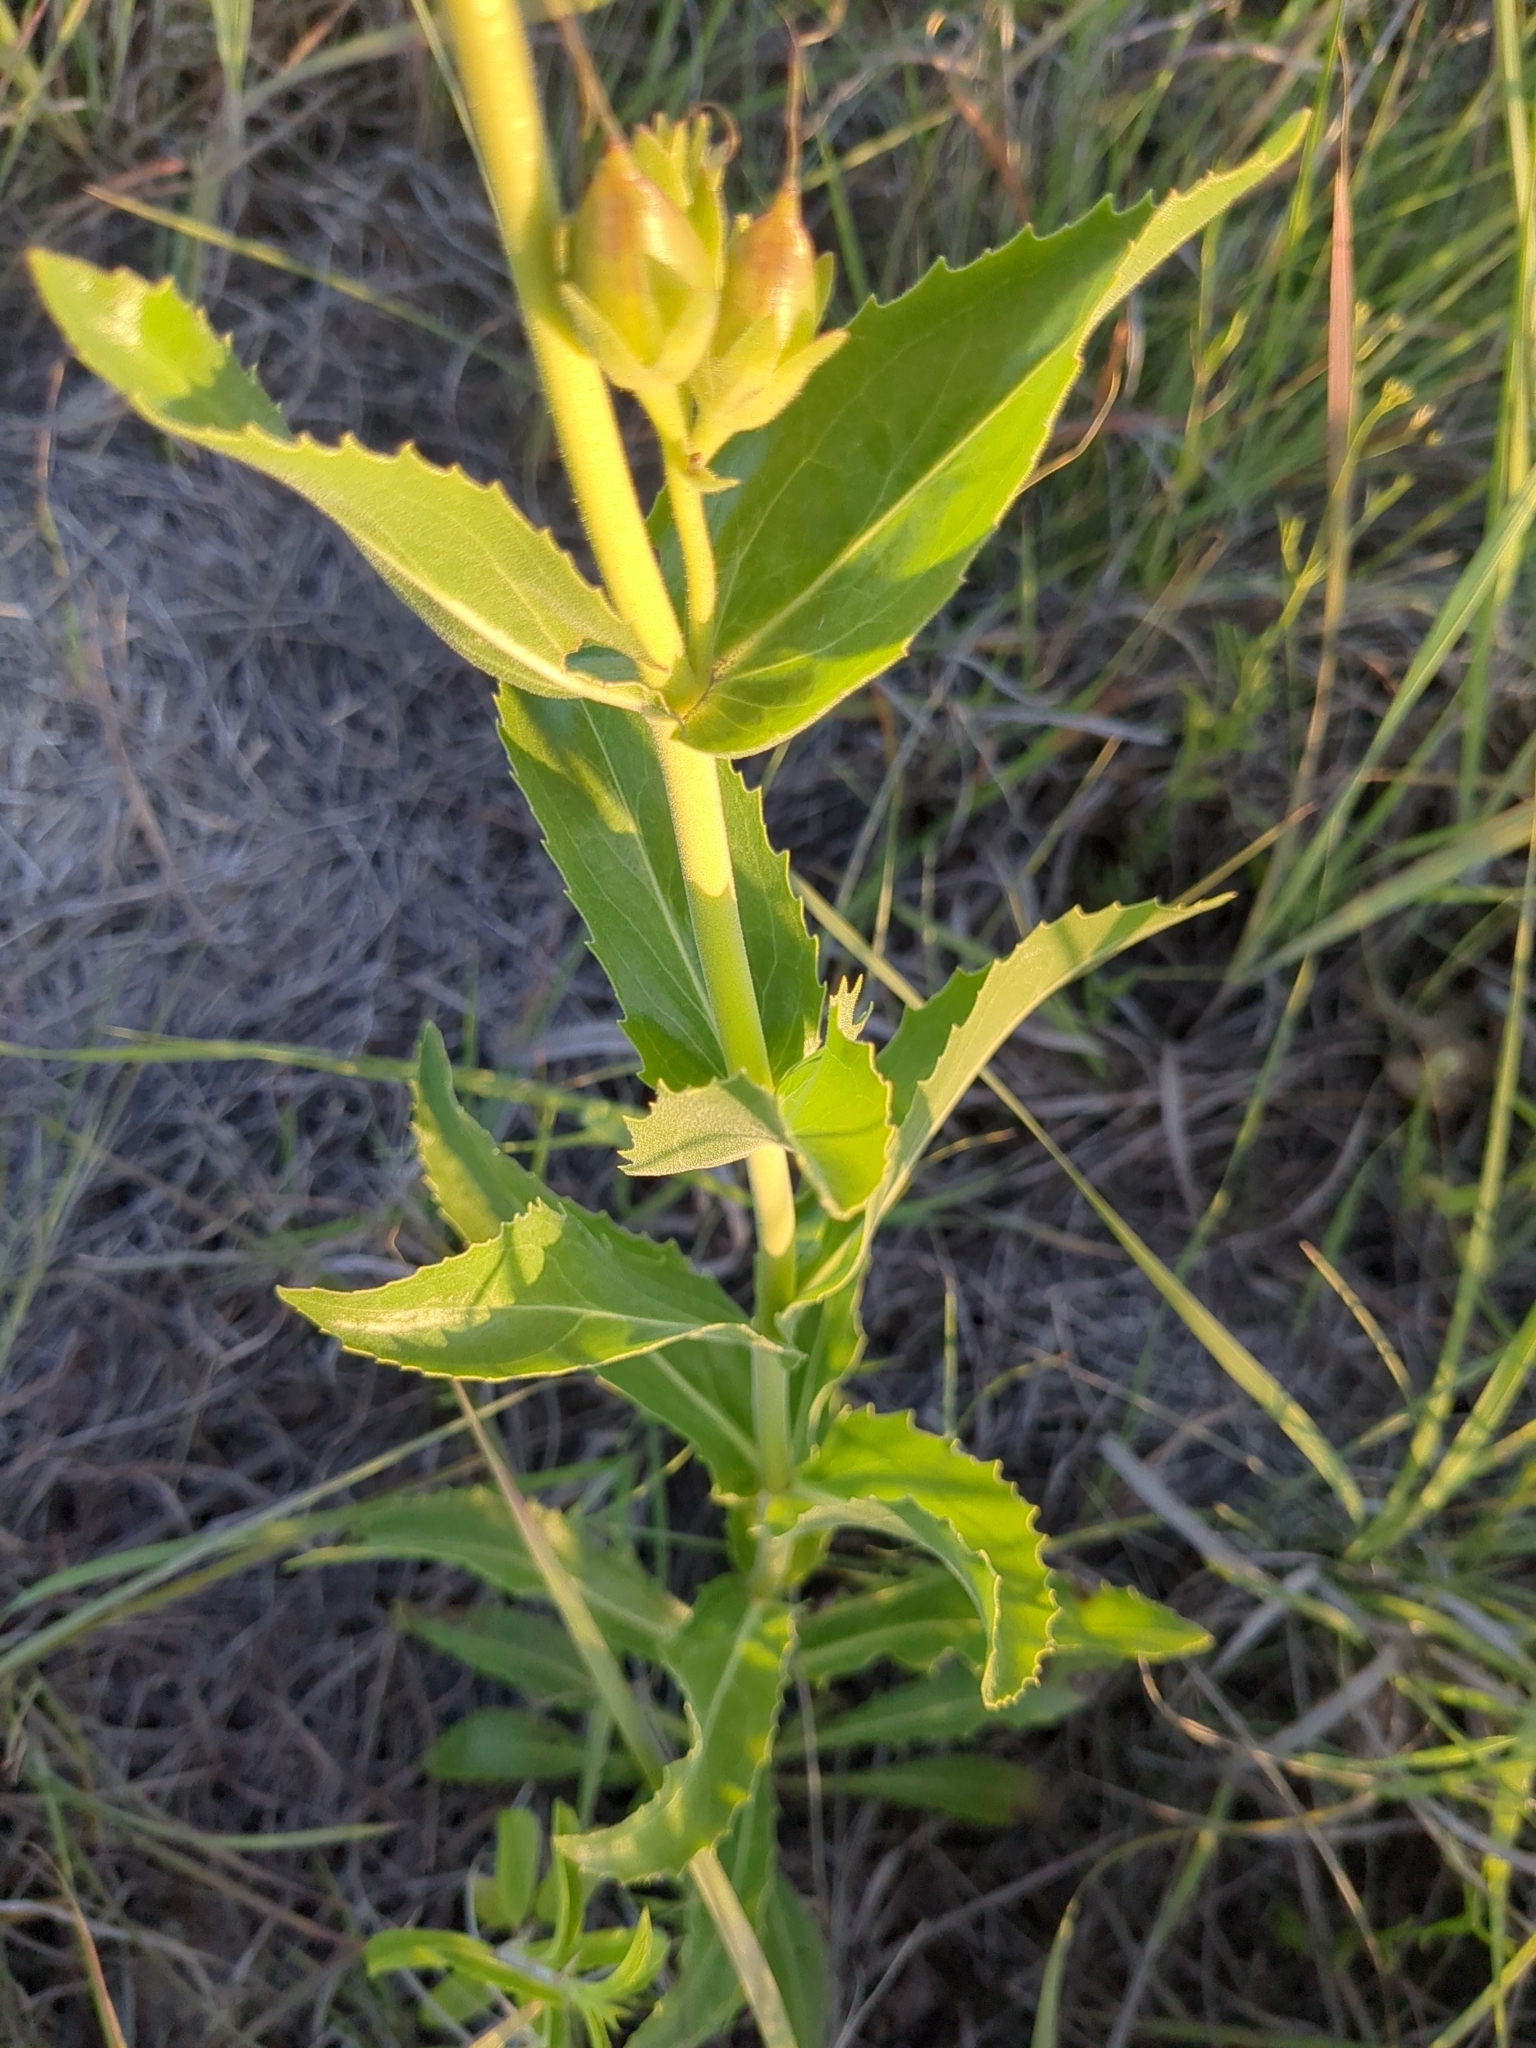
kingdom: Plantae
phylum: Tracheophyta
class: Magnoliopsida
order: Lamiales
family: Plantaginaceae
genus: Penstemon
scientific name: Penstemon cobaea
